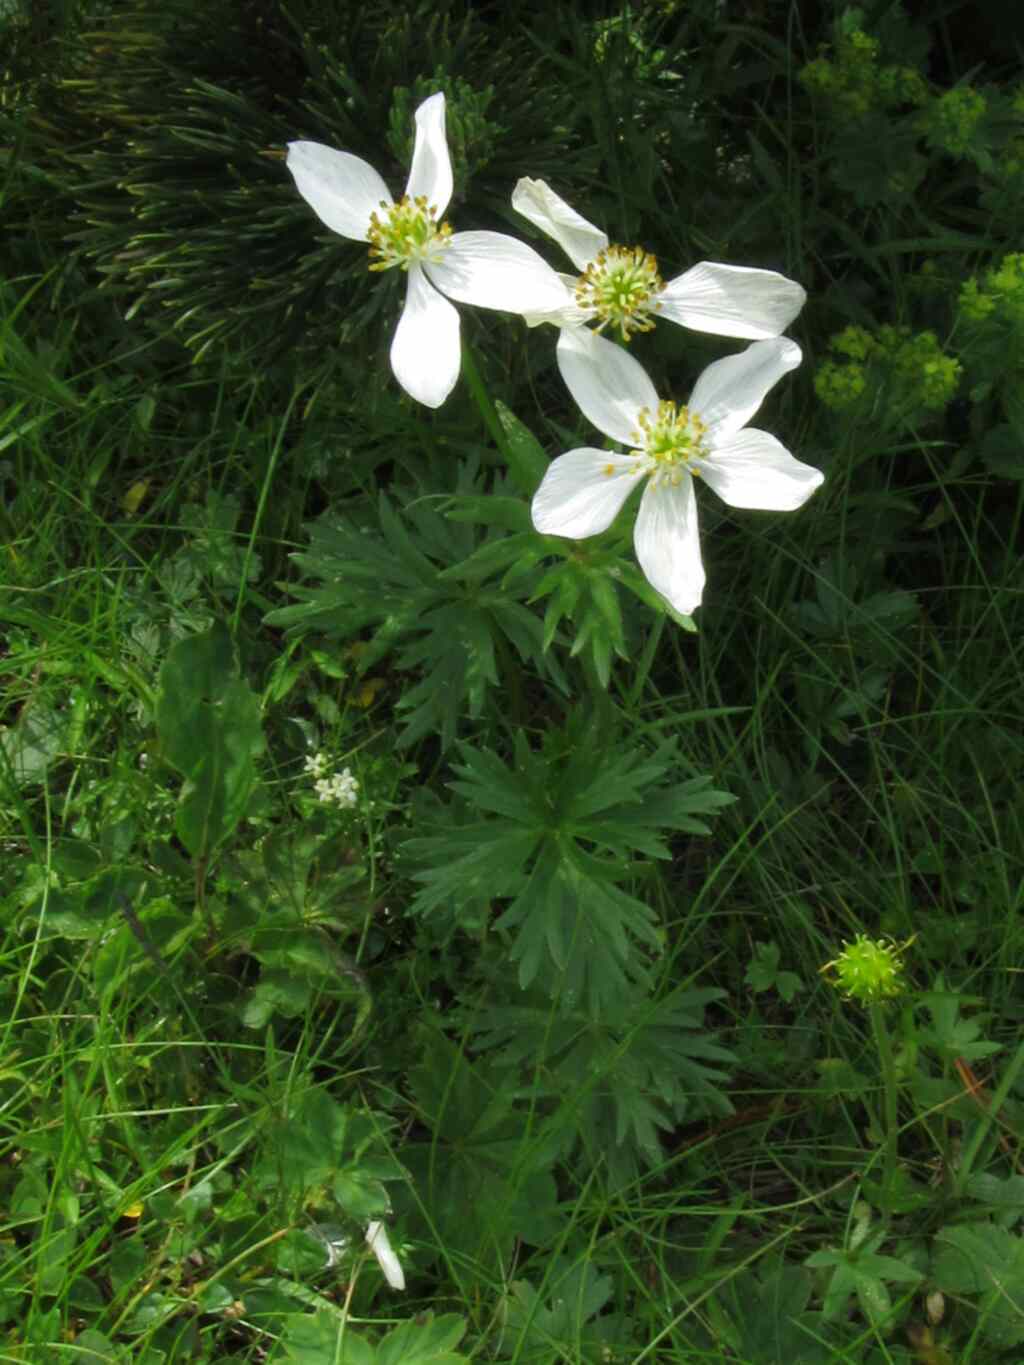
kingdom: Plantae
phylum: Tracheophyta
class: Magnoliopsida
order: Ranunculales
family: Ranunculaceae
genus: Anemonastrum
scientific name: Anemonastrum narcissiflorum
